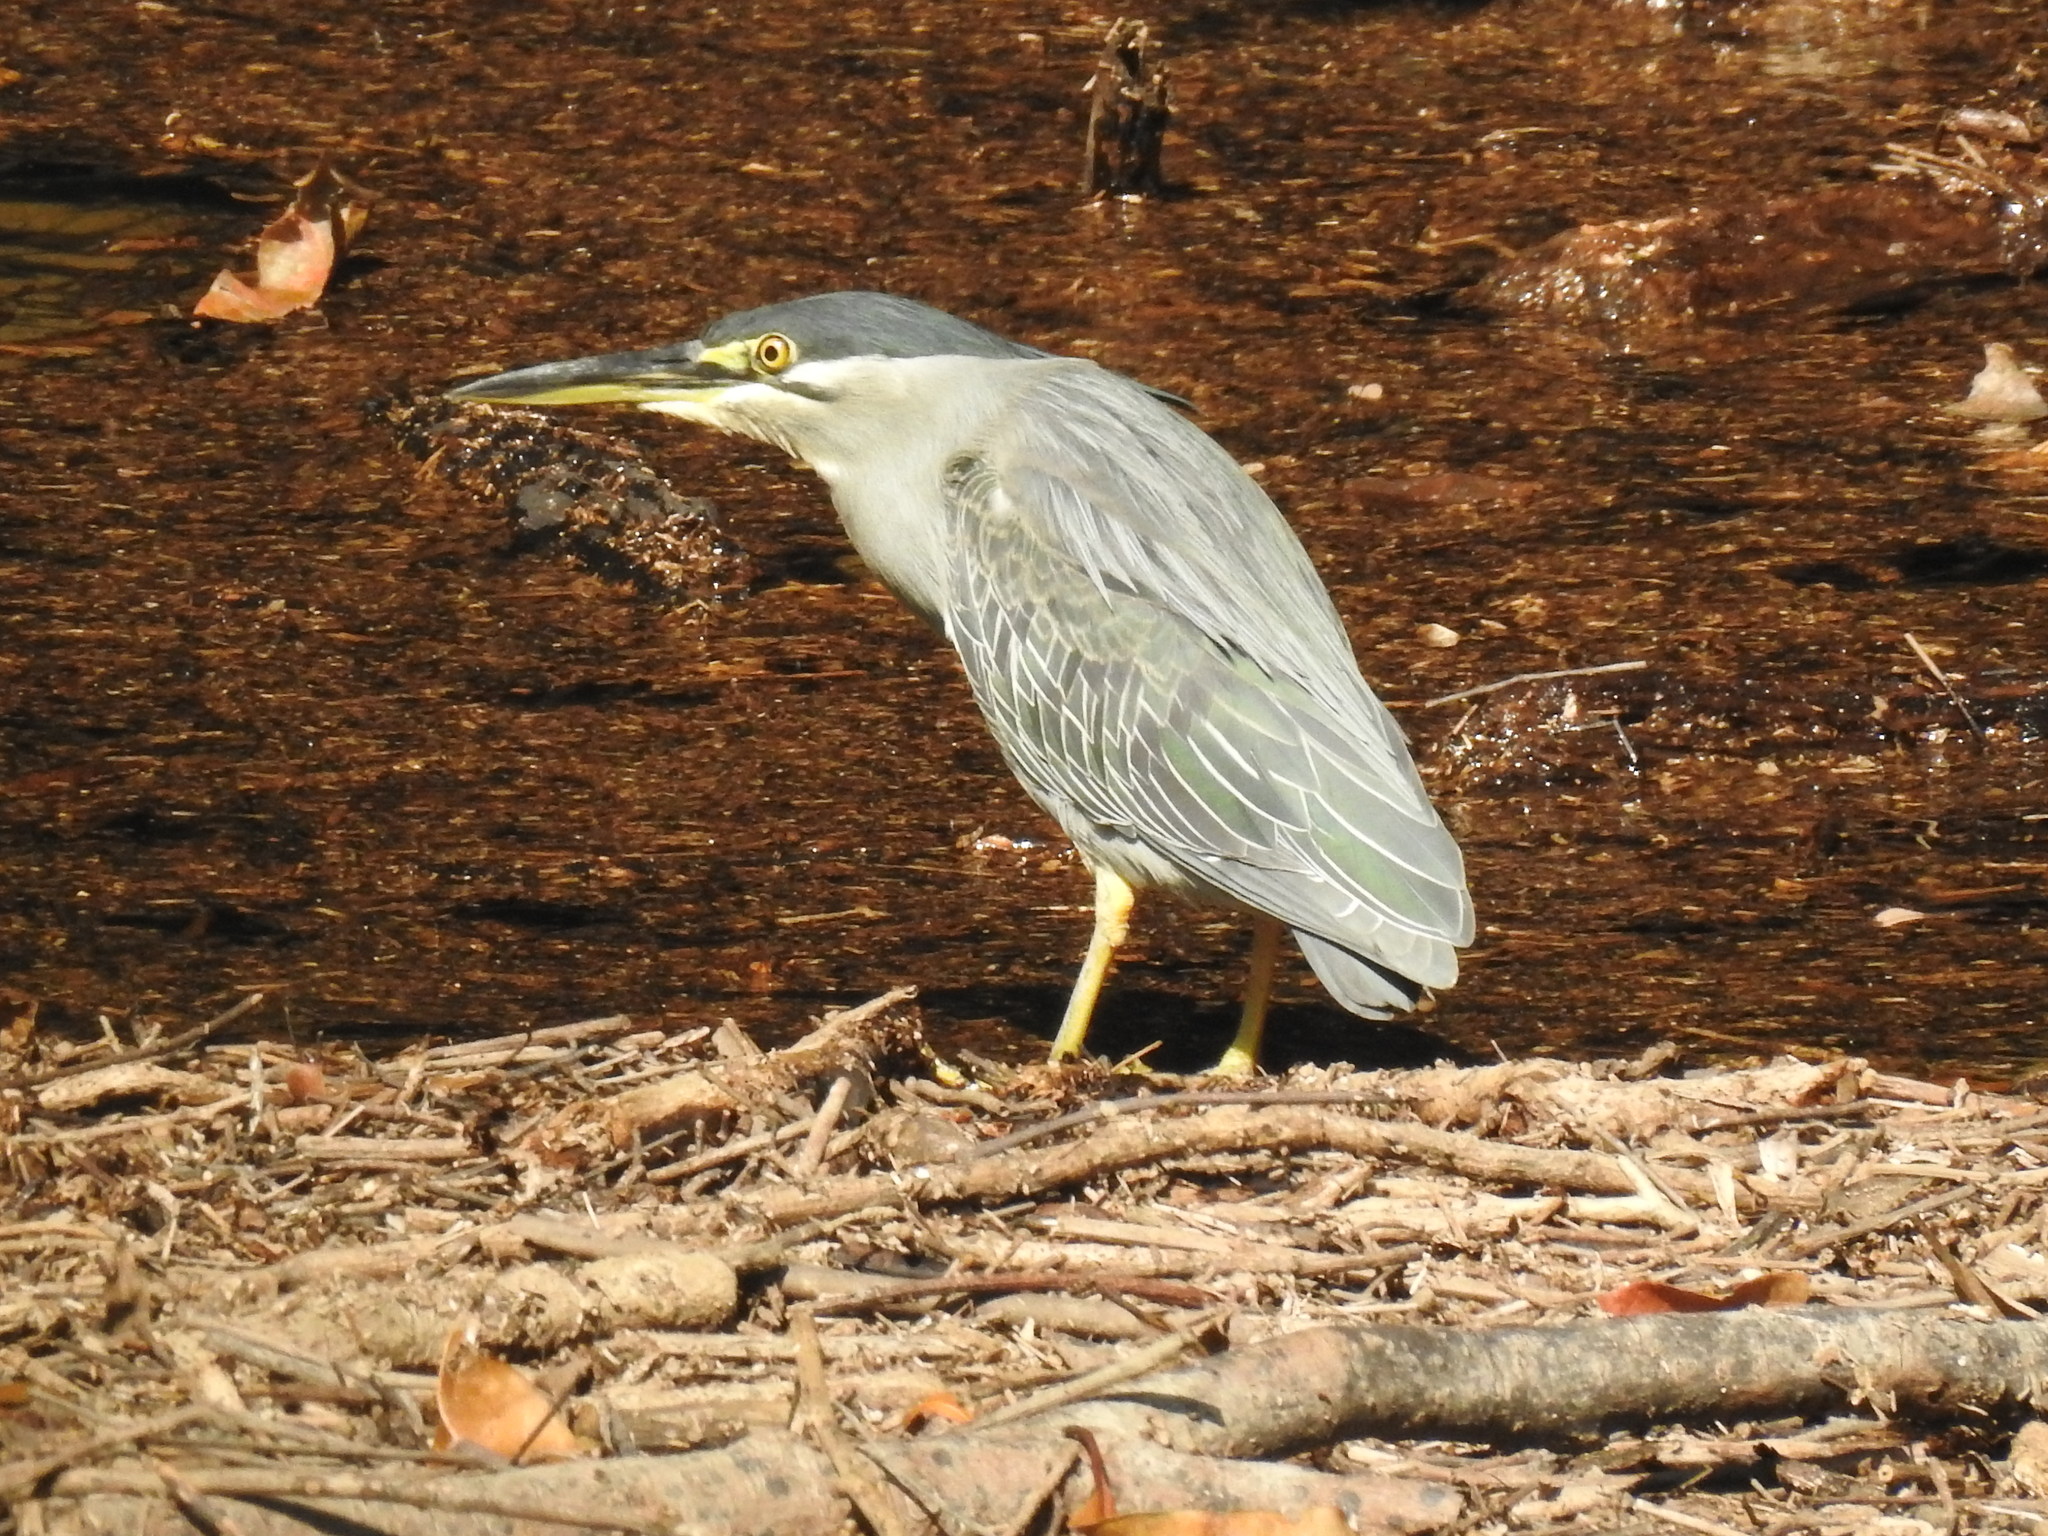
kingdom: Animalia
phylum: Chordata
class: Aves
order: Pelecaniformes
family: Ardeidae
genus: Butorides
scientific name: Butorides striata
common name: Striated heron
